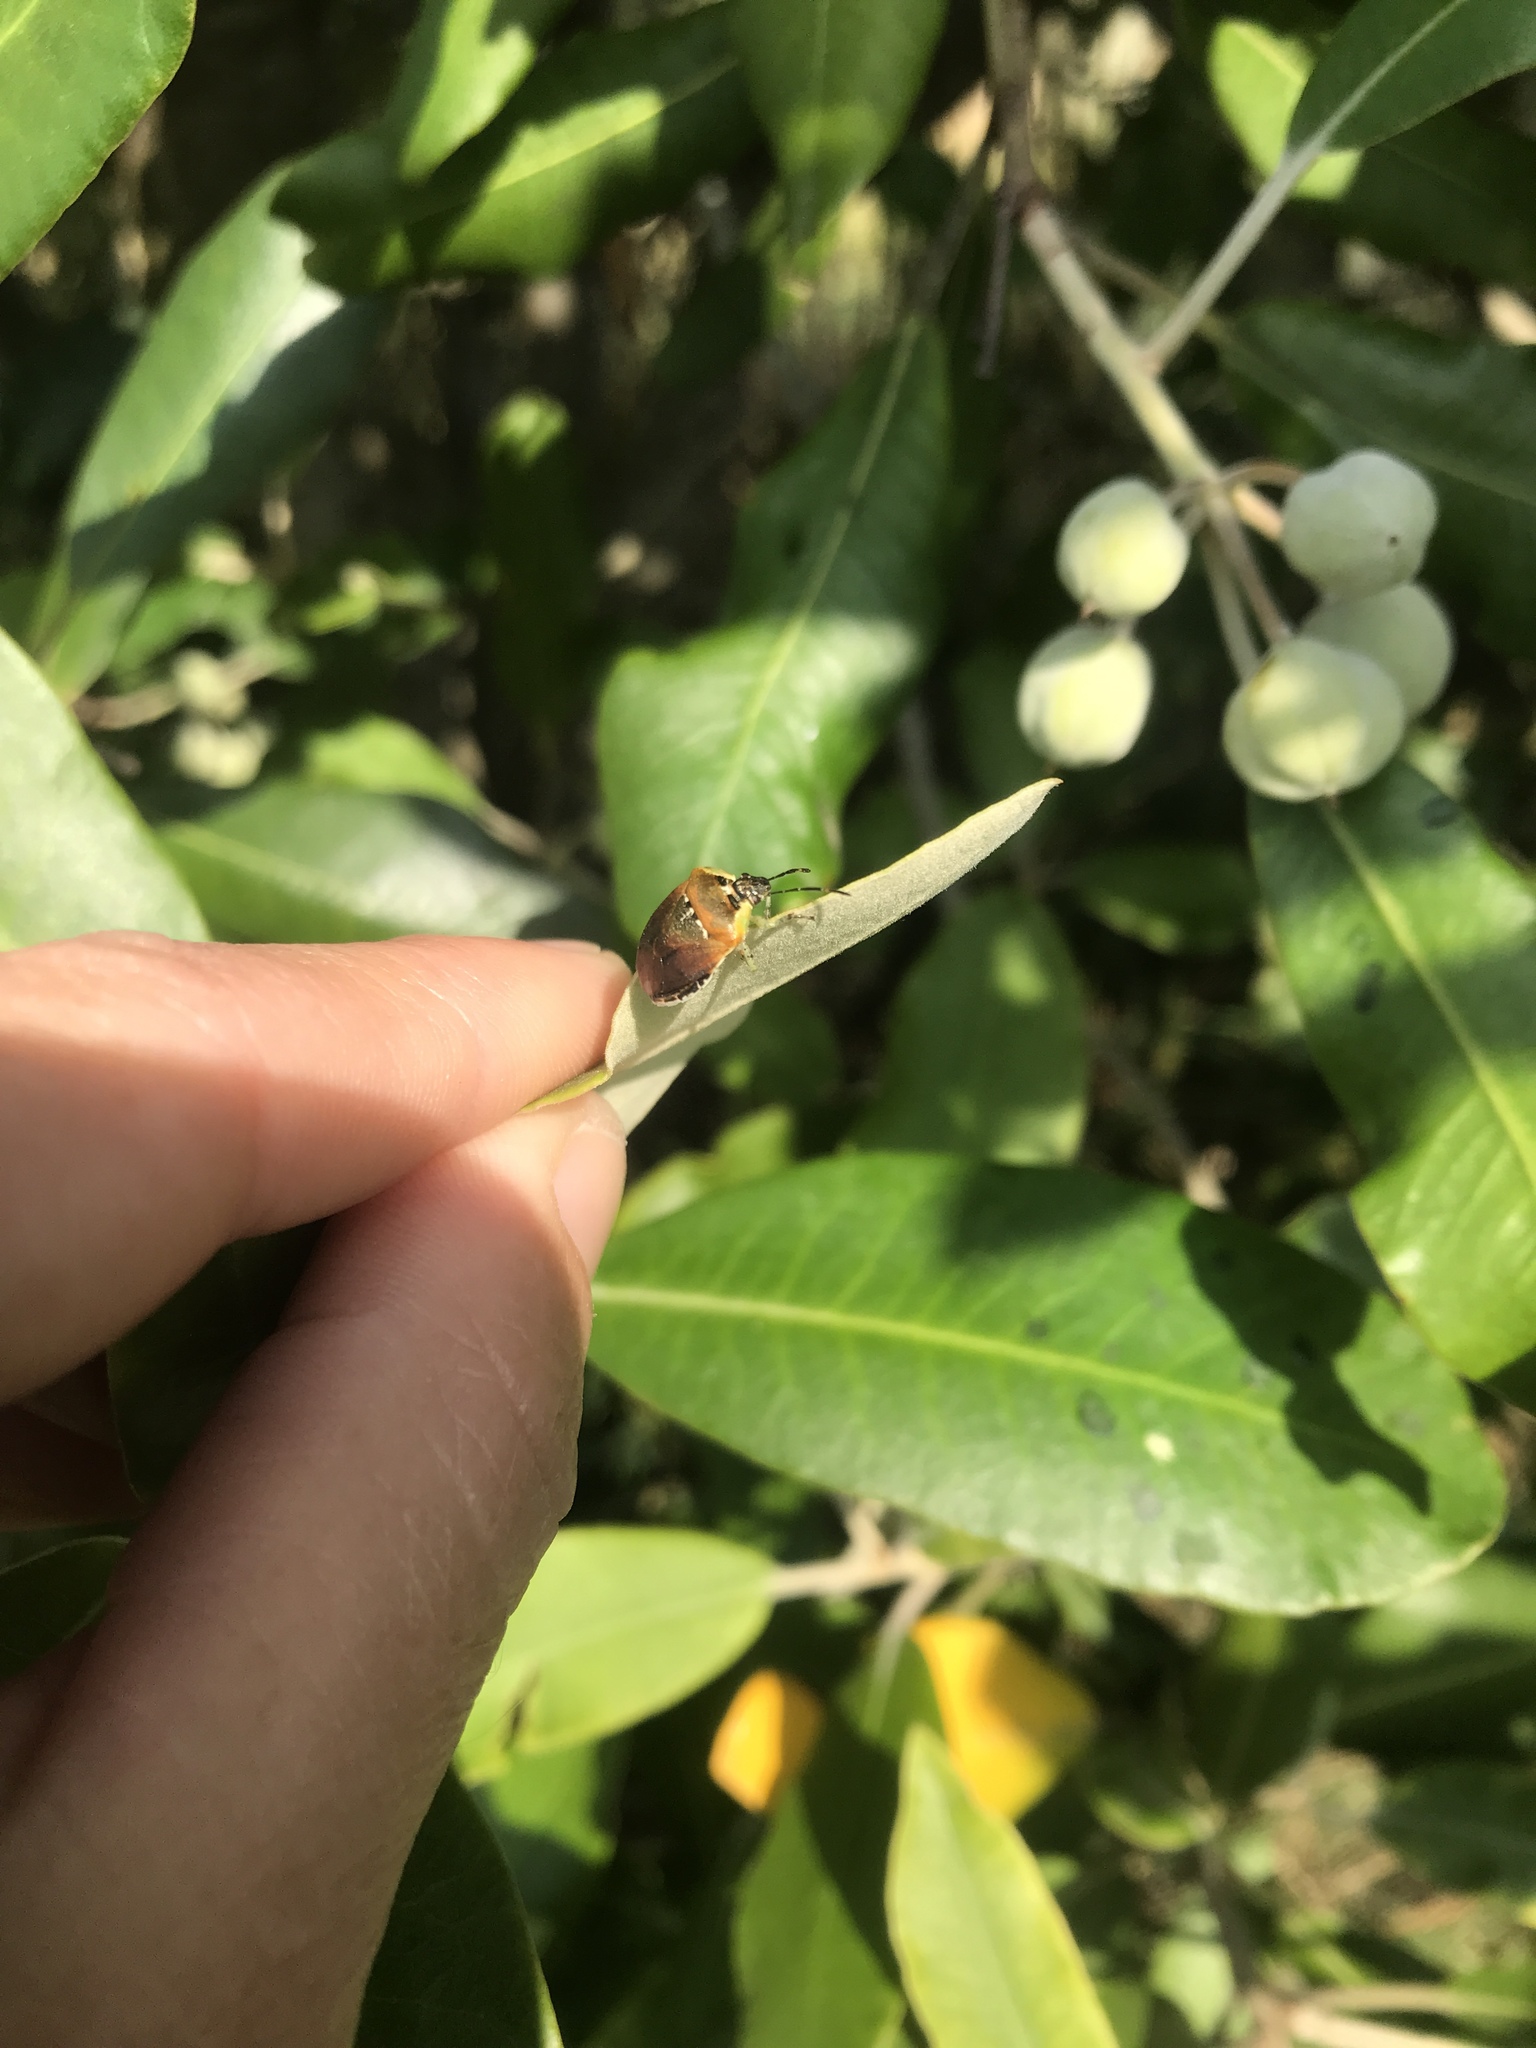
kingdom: Animalia
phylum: Arthropoda
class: Insecta
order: Hemiptera
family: Pentatomidae
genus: Monteithiella
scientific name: Monteithiella
